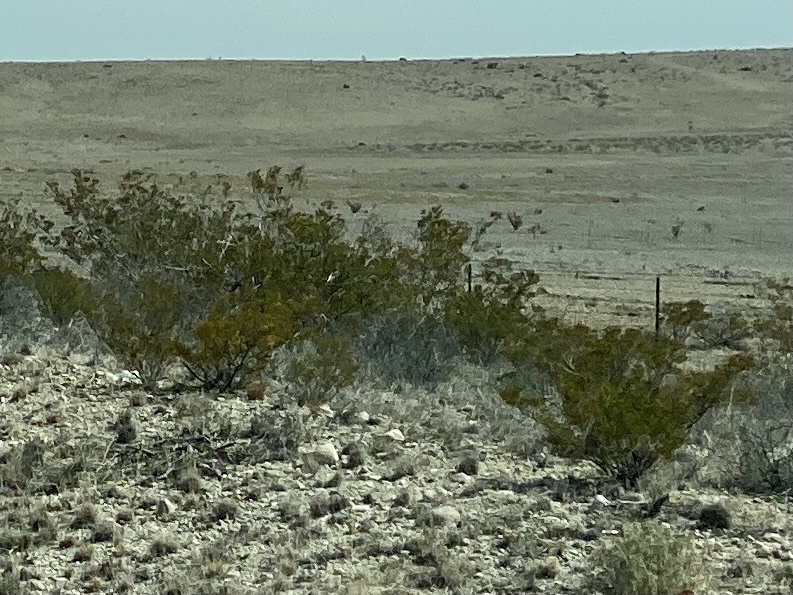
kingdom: Plantae
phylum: Tracheophyta
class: Magnoliopsida
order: Zygophyllales
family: Zygophyllaceae
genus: Larrea
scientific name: Larrea tridentata
